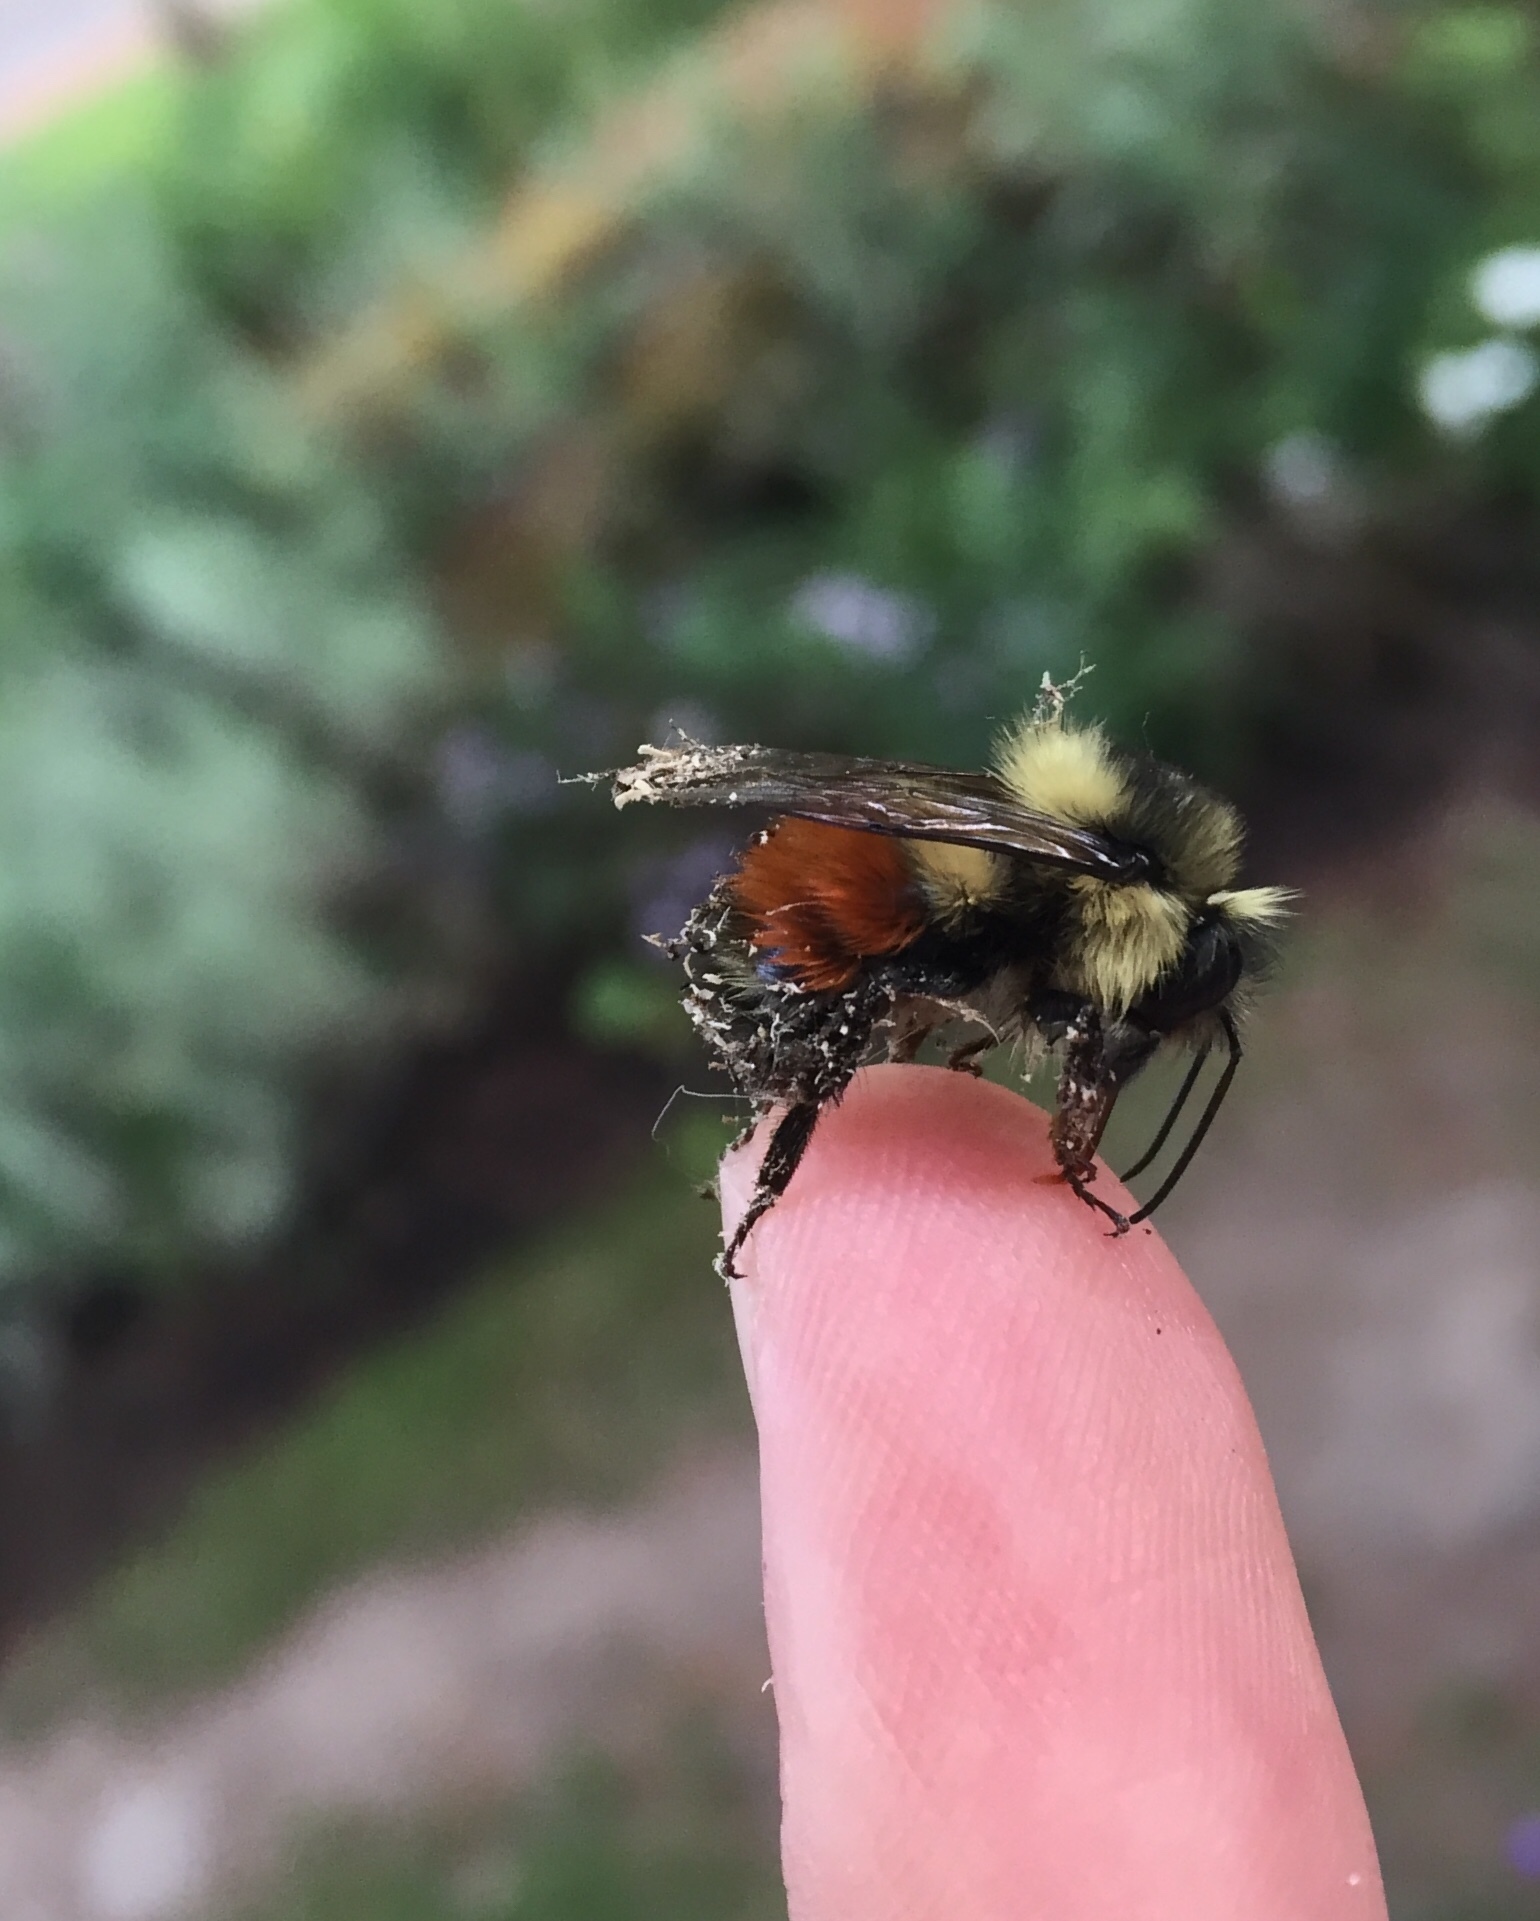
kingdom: Animalia
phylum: Arthropoda
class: Insecta
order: Hymenoptera
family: Apidae
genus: Bombus
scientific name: Bombus melanopygus
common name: Black tail bumble bee
